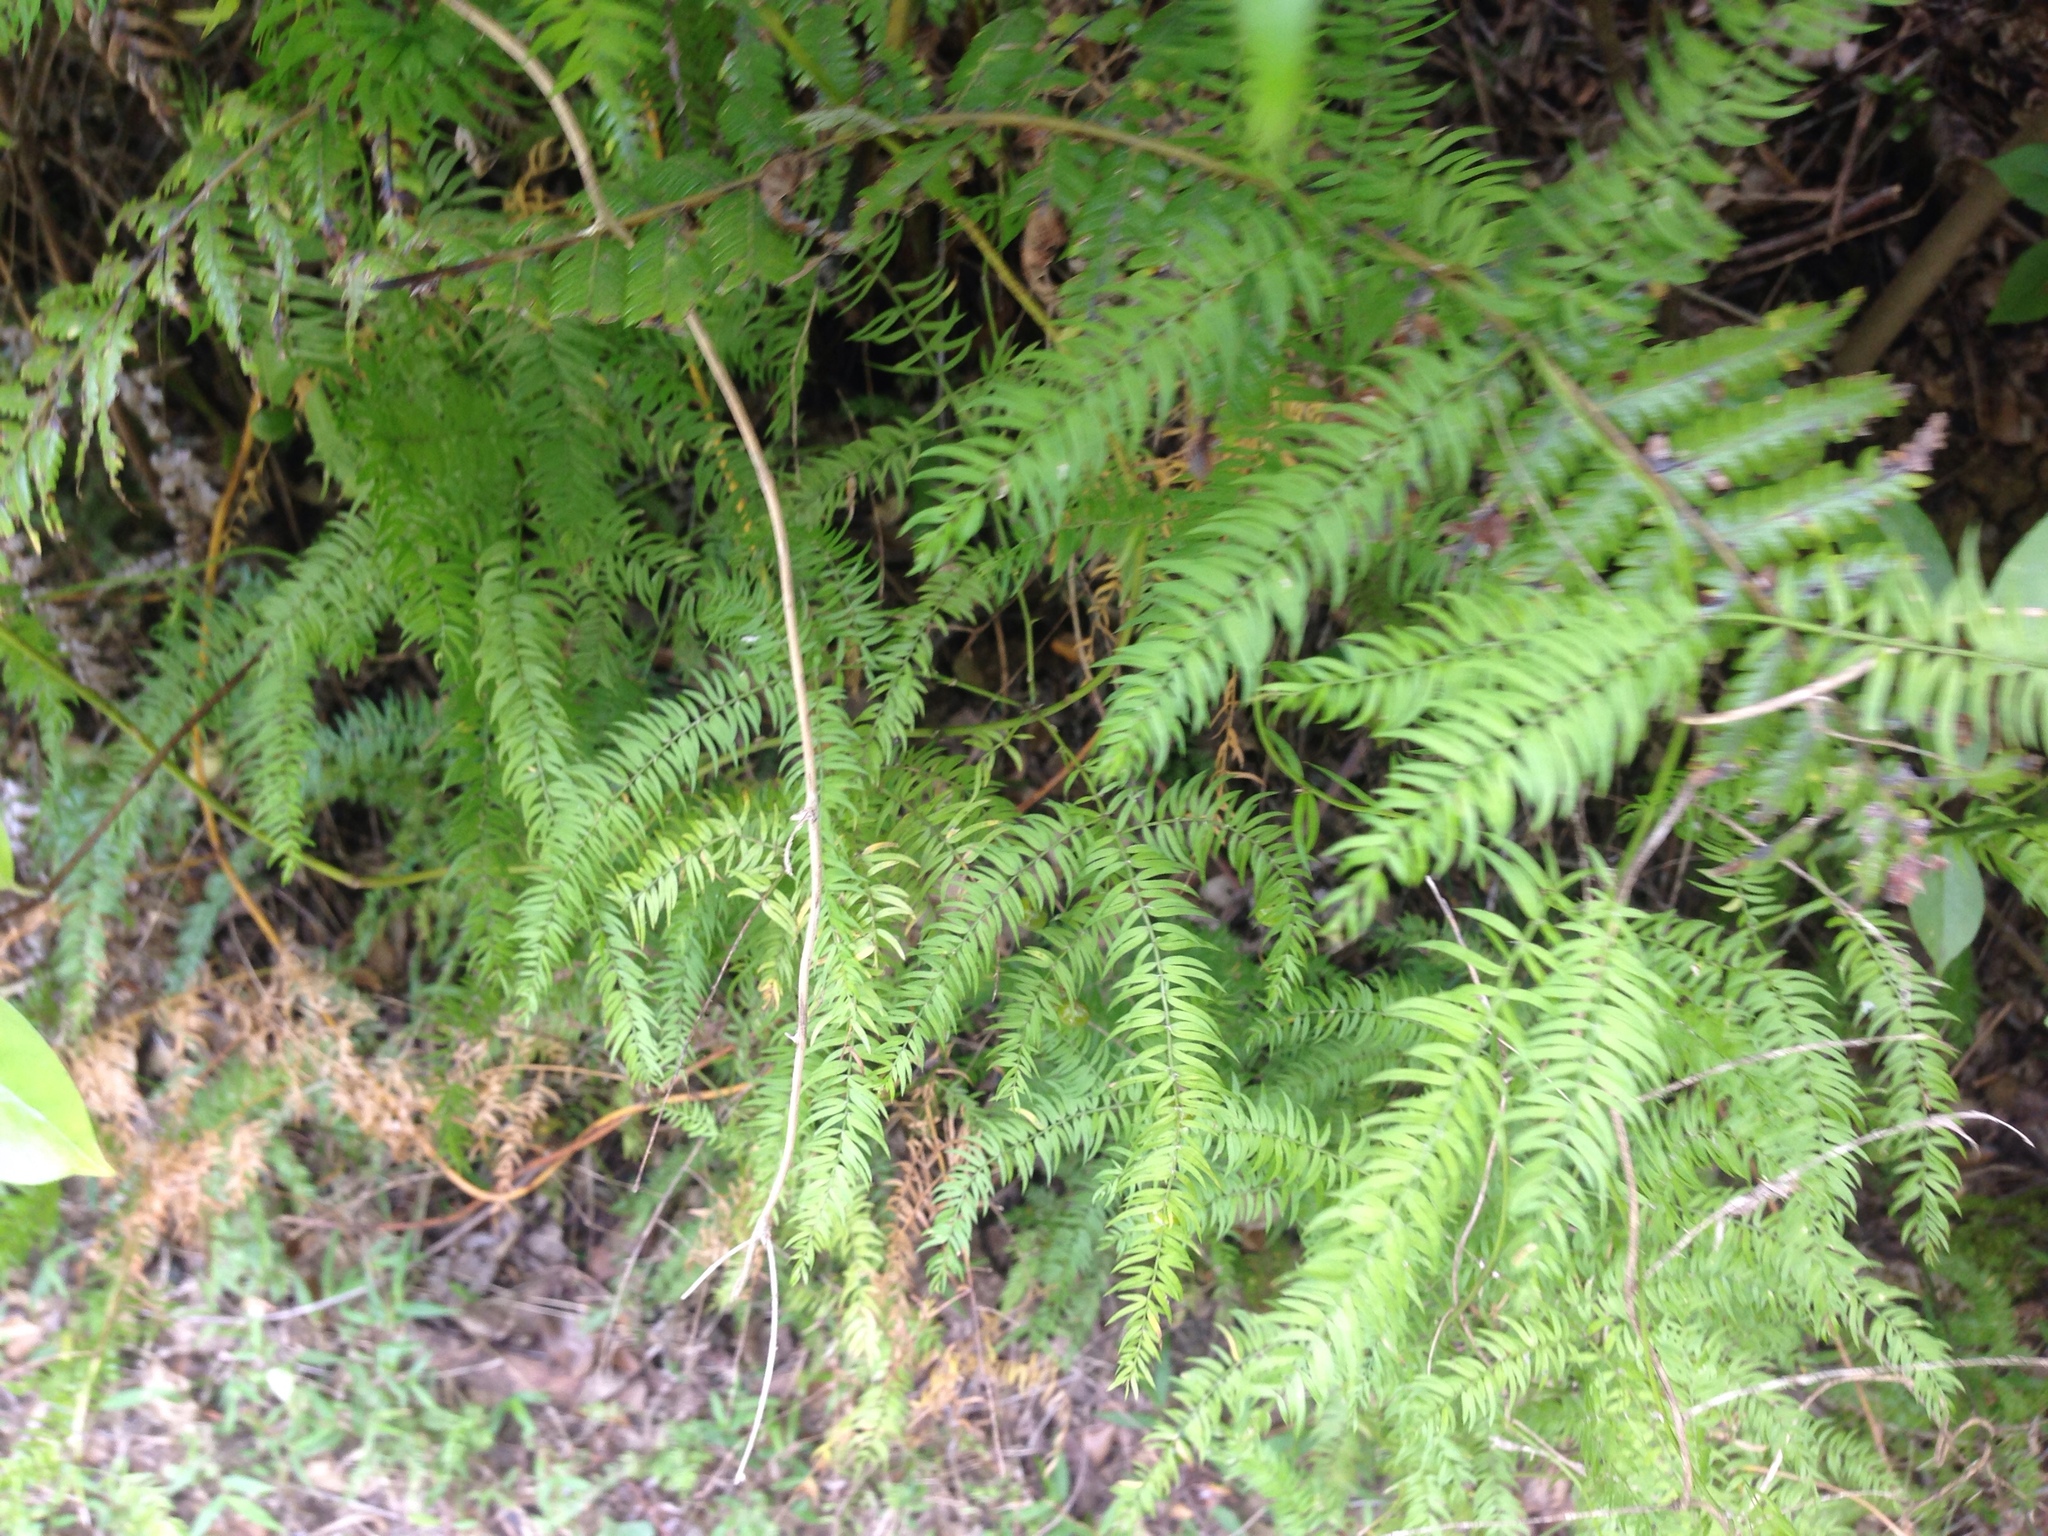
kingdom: Plantae
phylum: Tracheophyta
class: Liliopsida
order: Asparagales
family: Asparagaceae
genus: Asparagus
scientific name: Asparagus scandens
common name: Asparagus-fern
